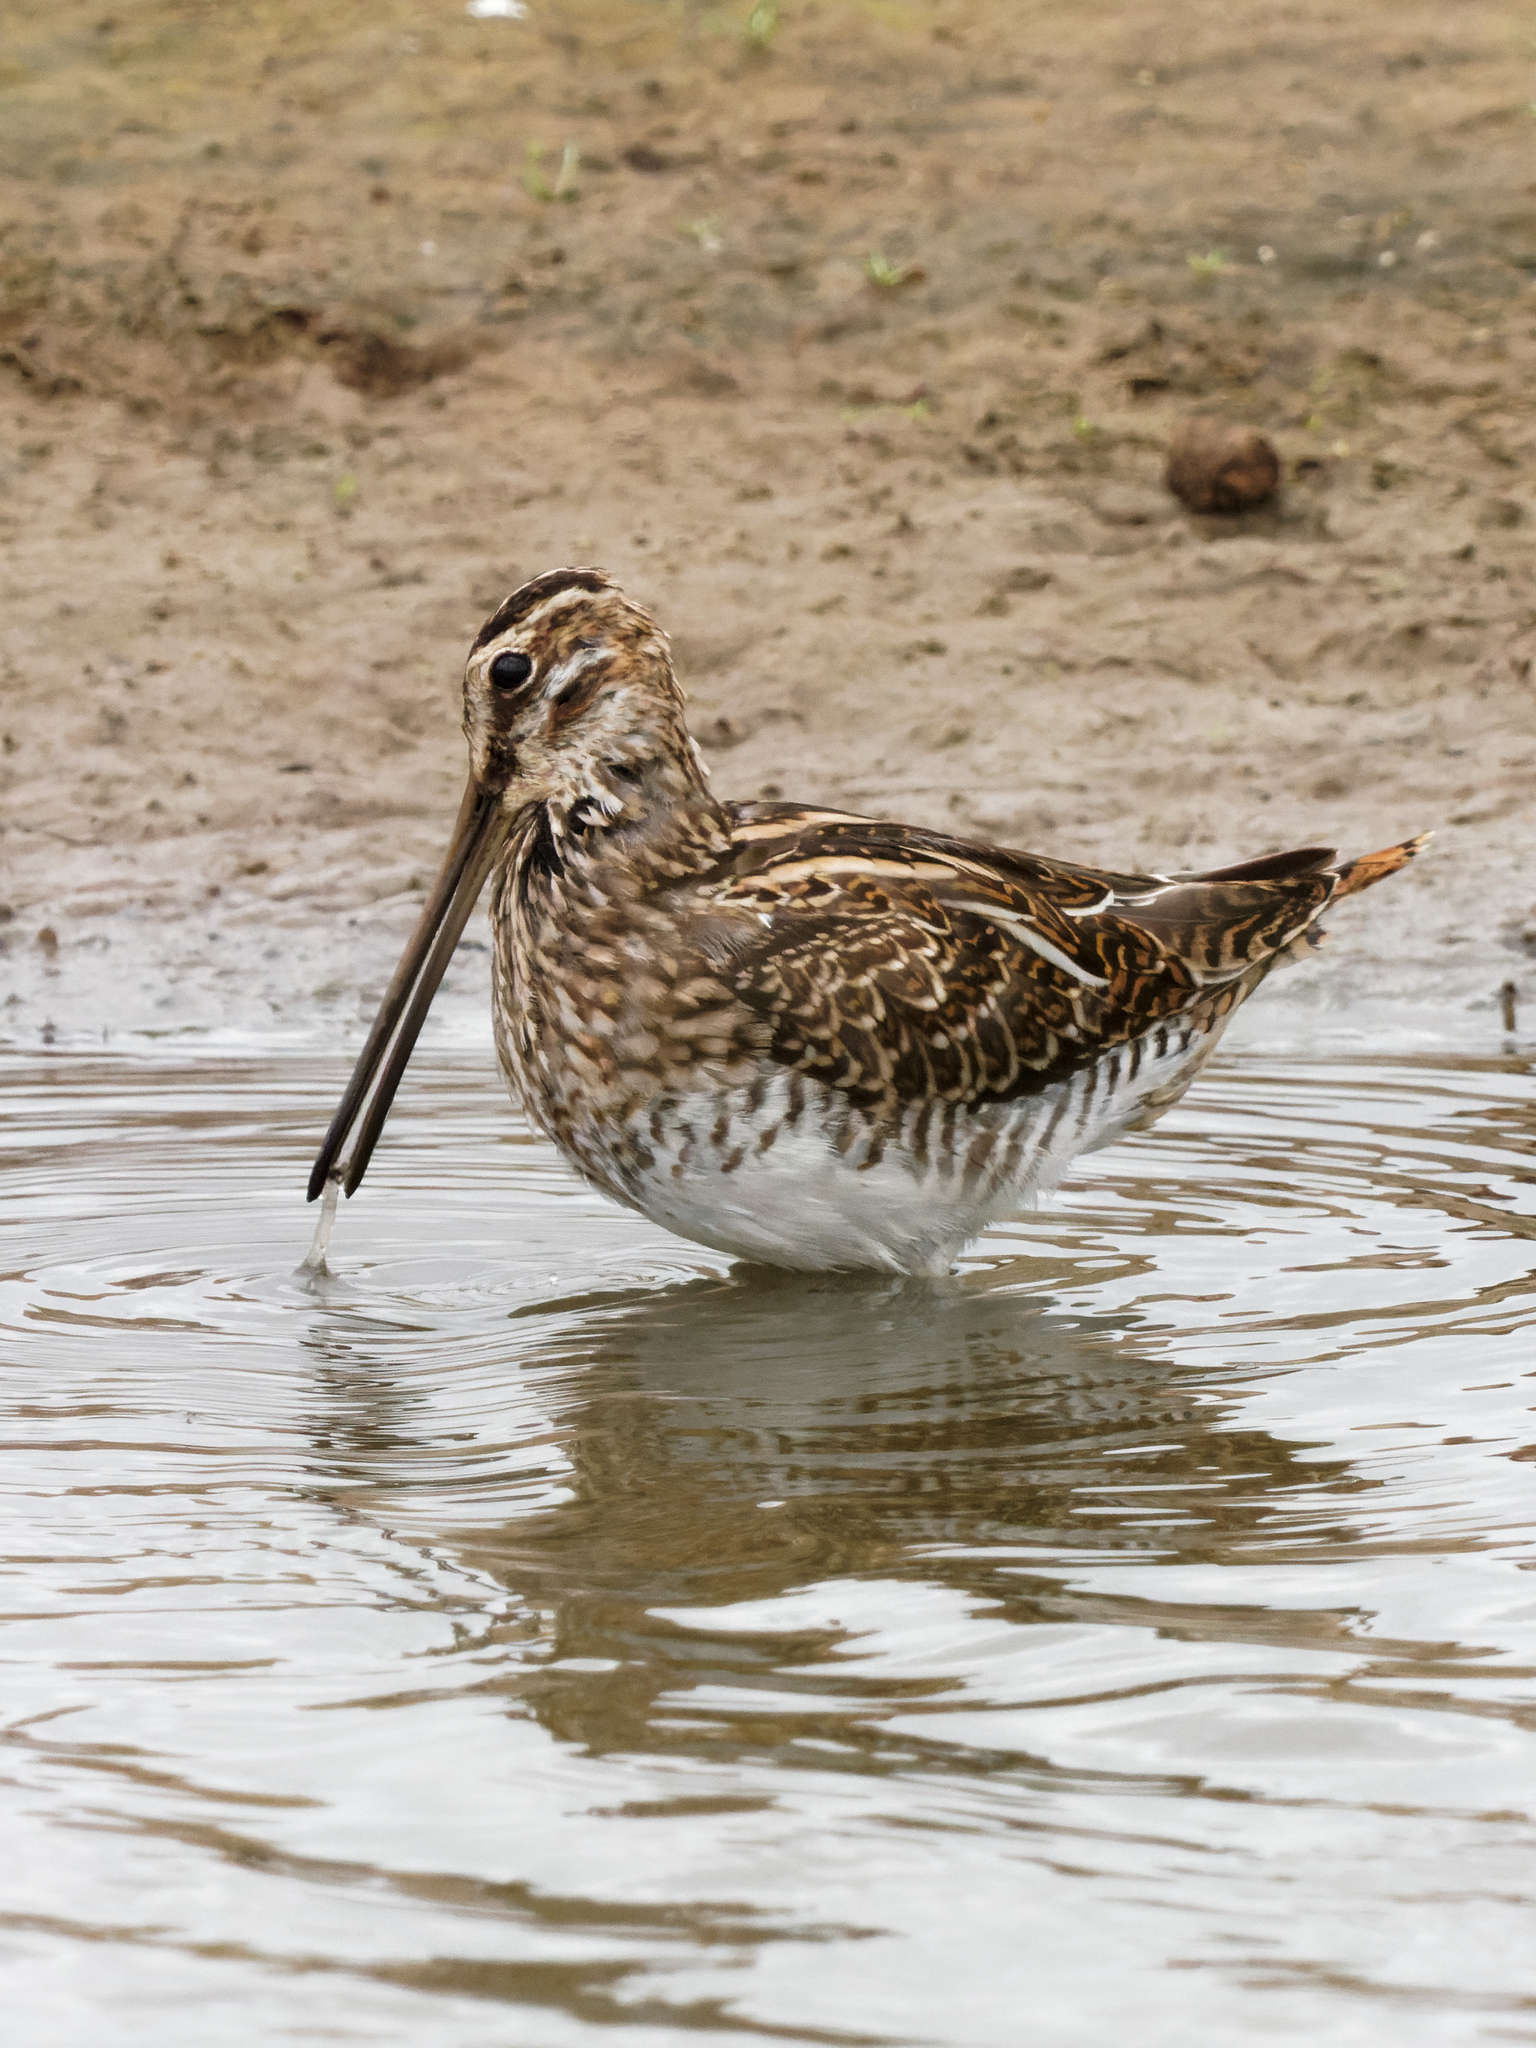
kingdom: Animalia
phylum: Chordata
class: Aves
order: Charadriiformes
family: Scolopacidae
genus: Gallinago
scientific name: Gallinago gallinago
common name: Common snipe
